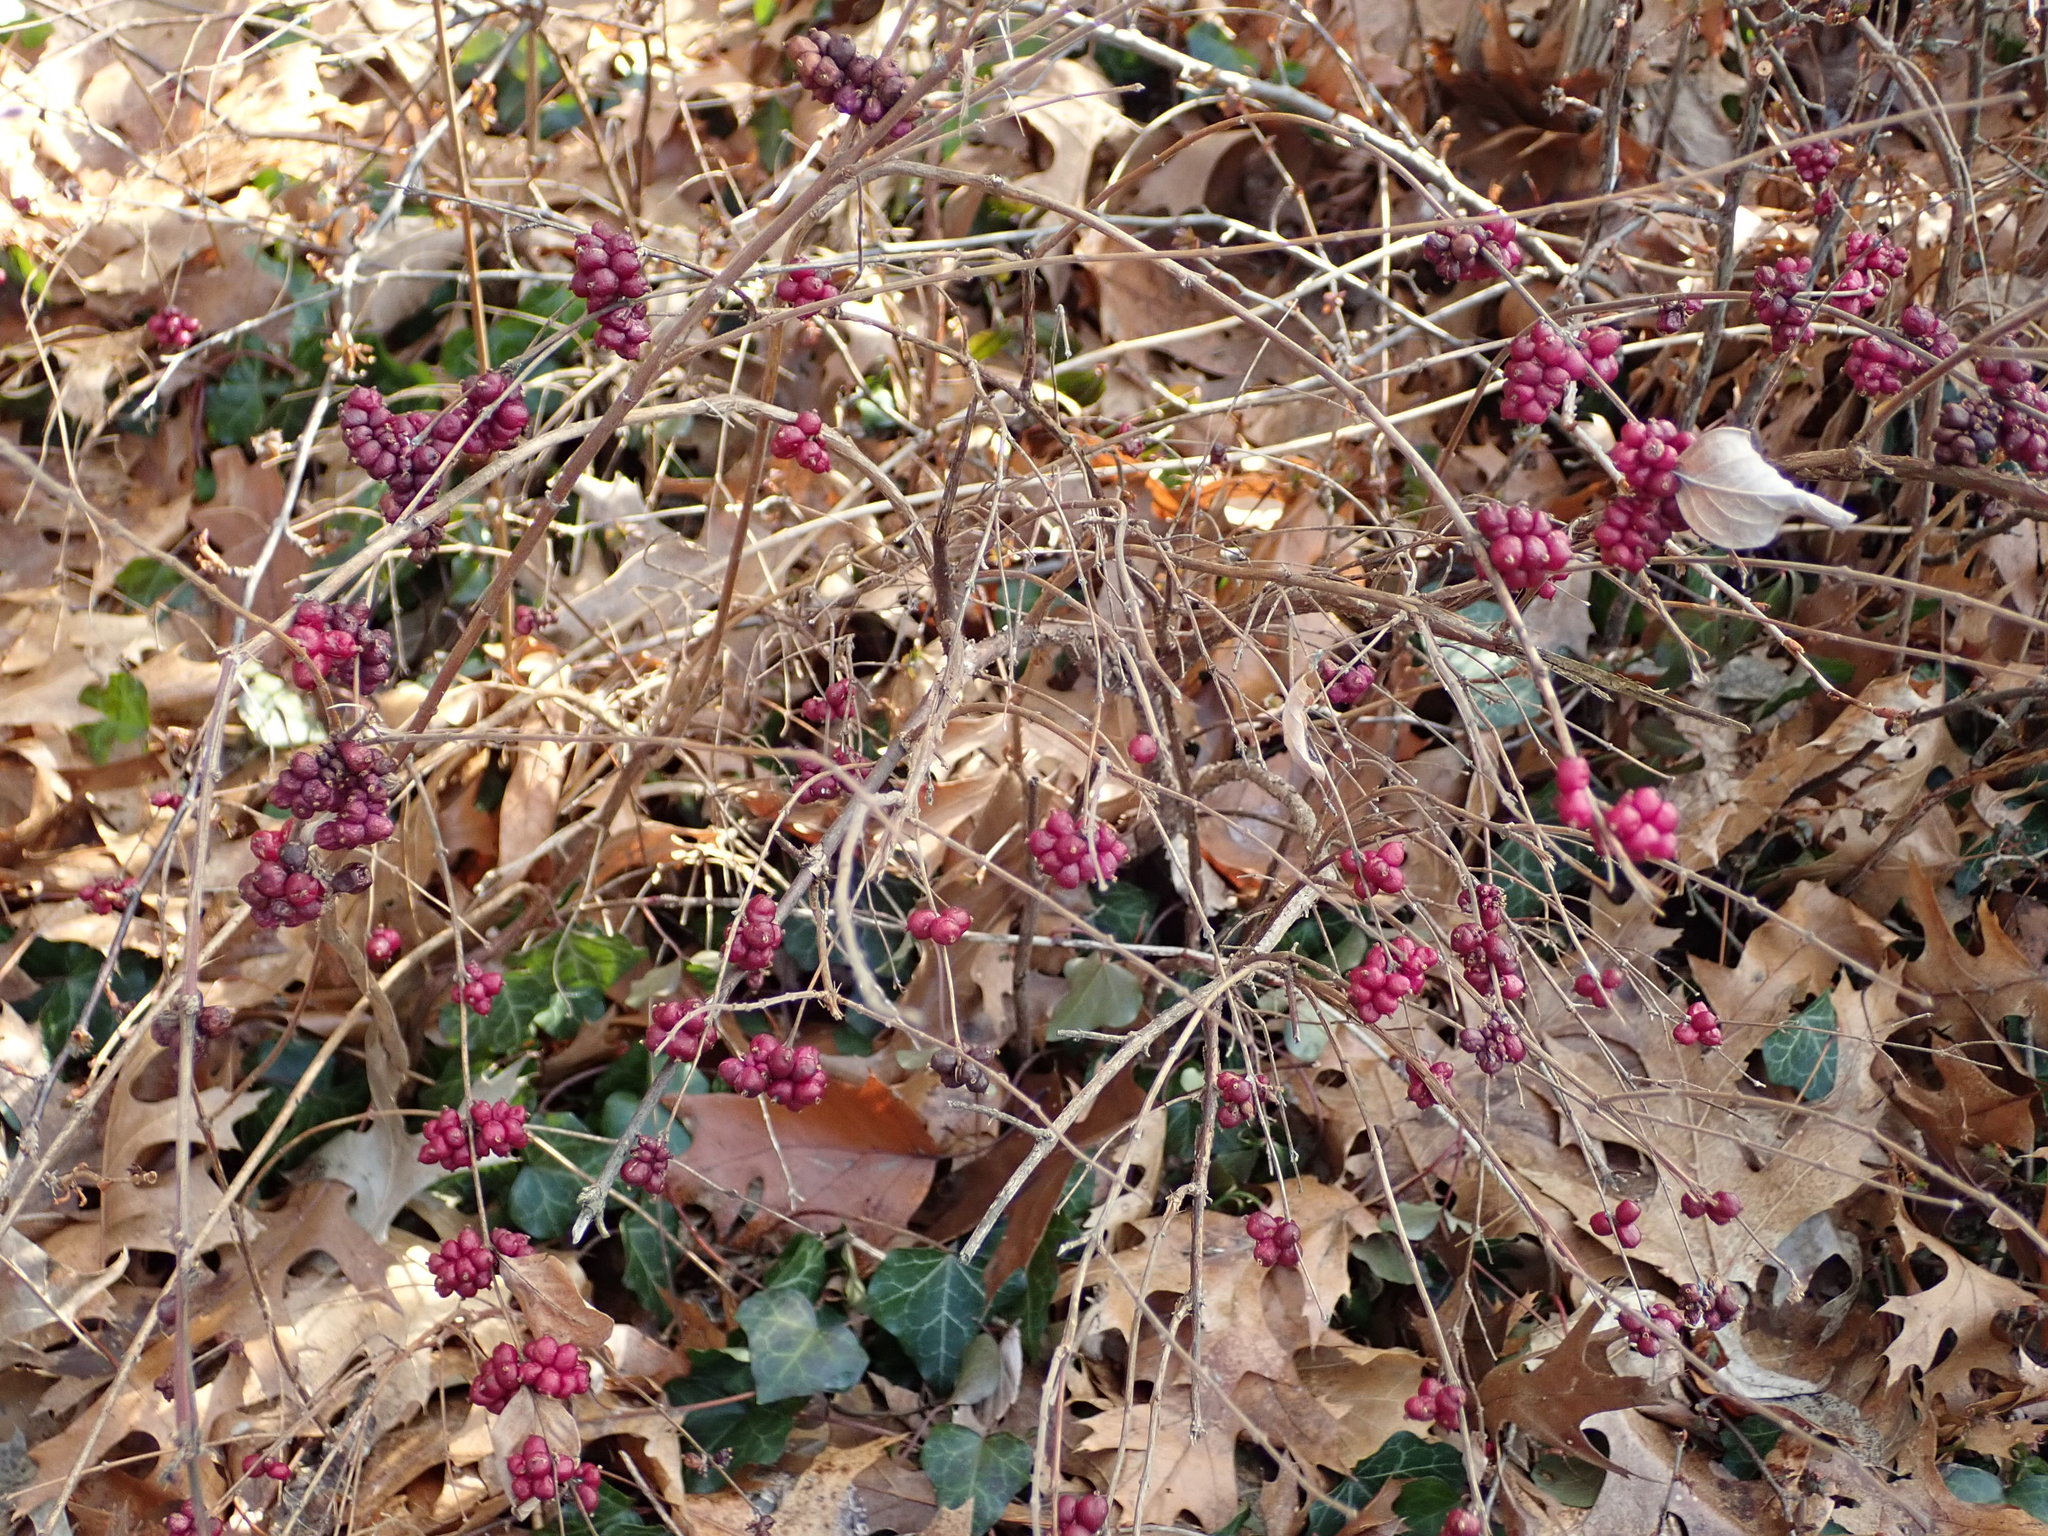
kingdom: Plantae
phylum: Tracheophyta
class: Magnoliopsida
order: Dipsacales
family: Caprifoliaceae
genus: Symphoricarpos
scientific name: Symphoricarpos orbiculatus
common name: Coralberry
